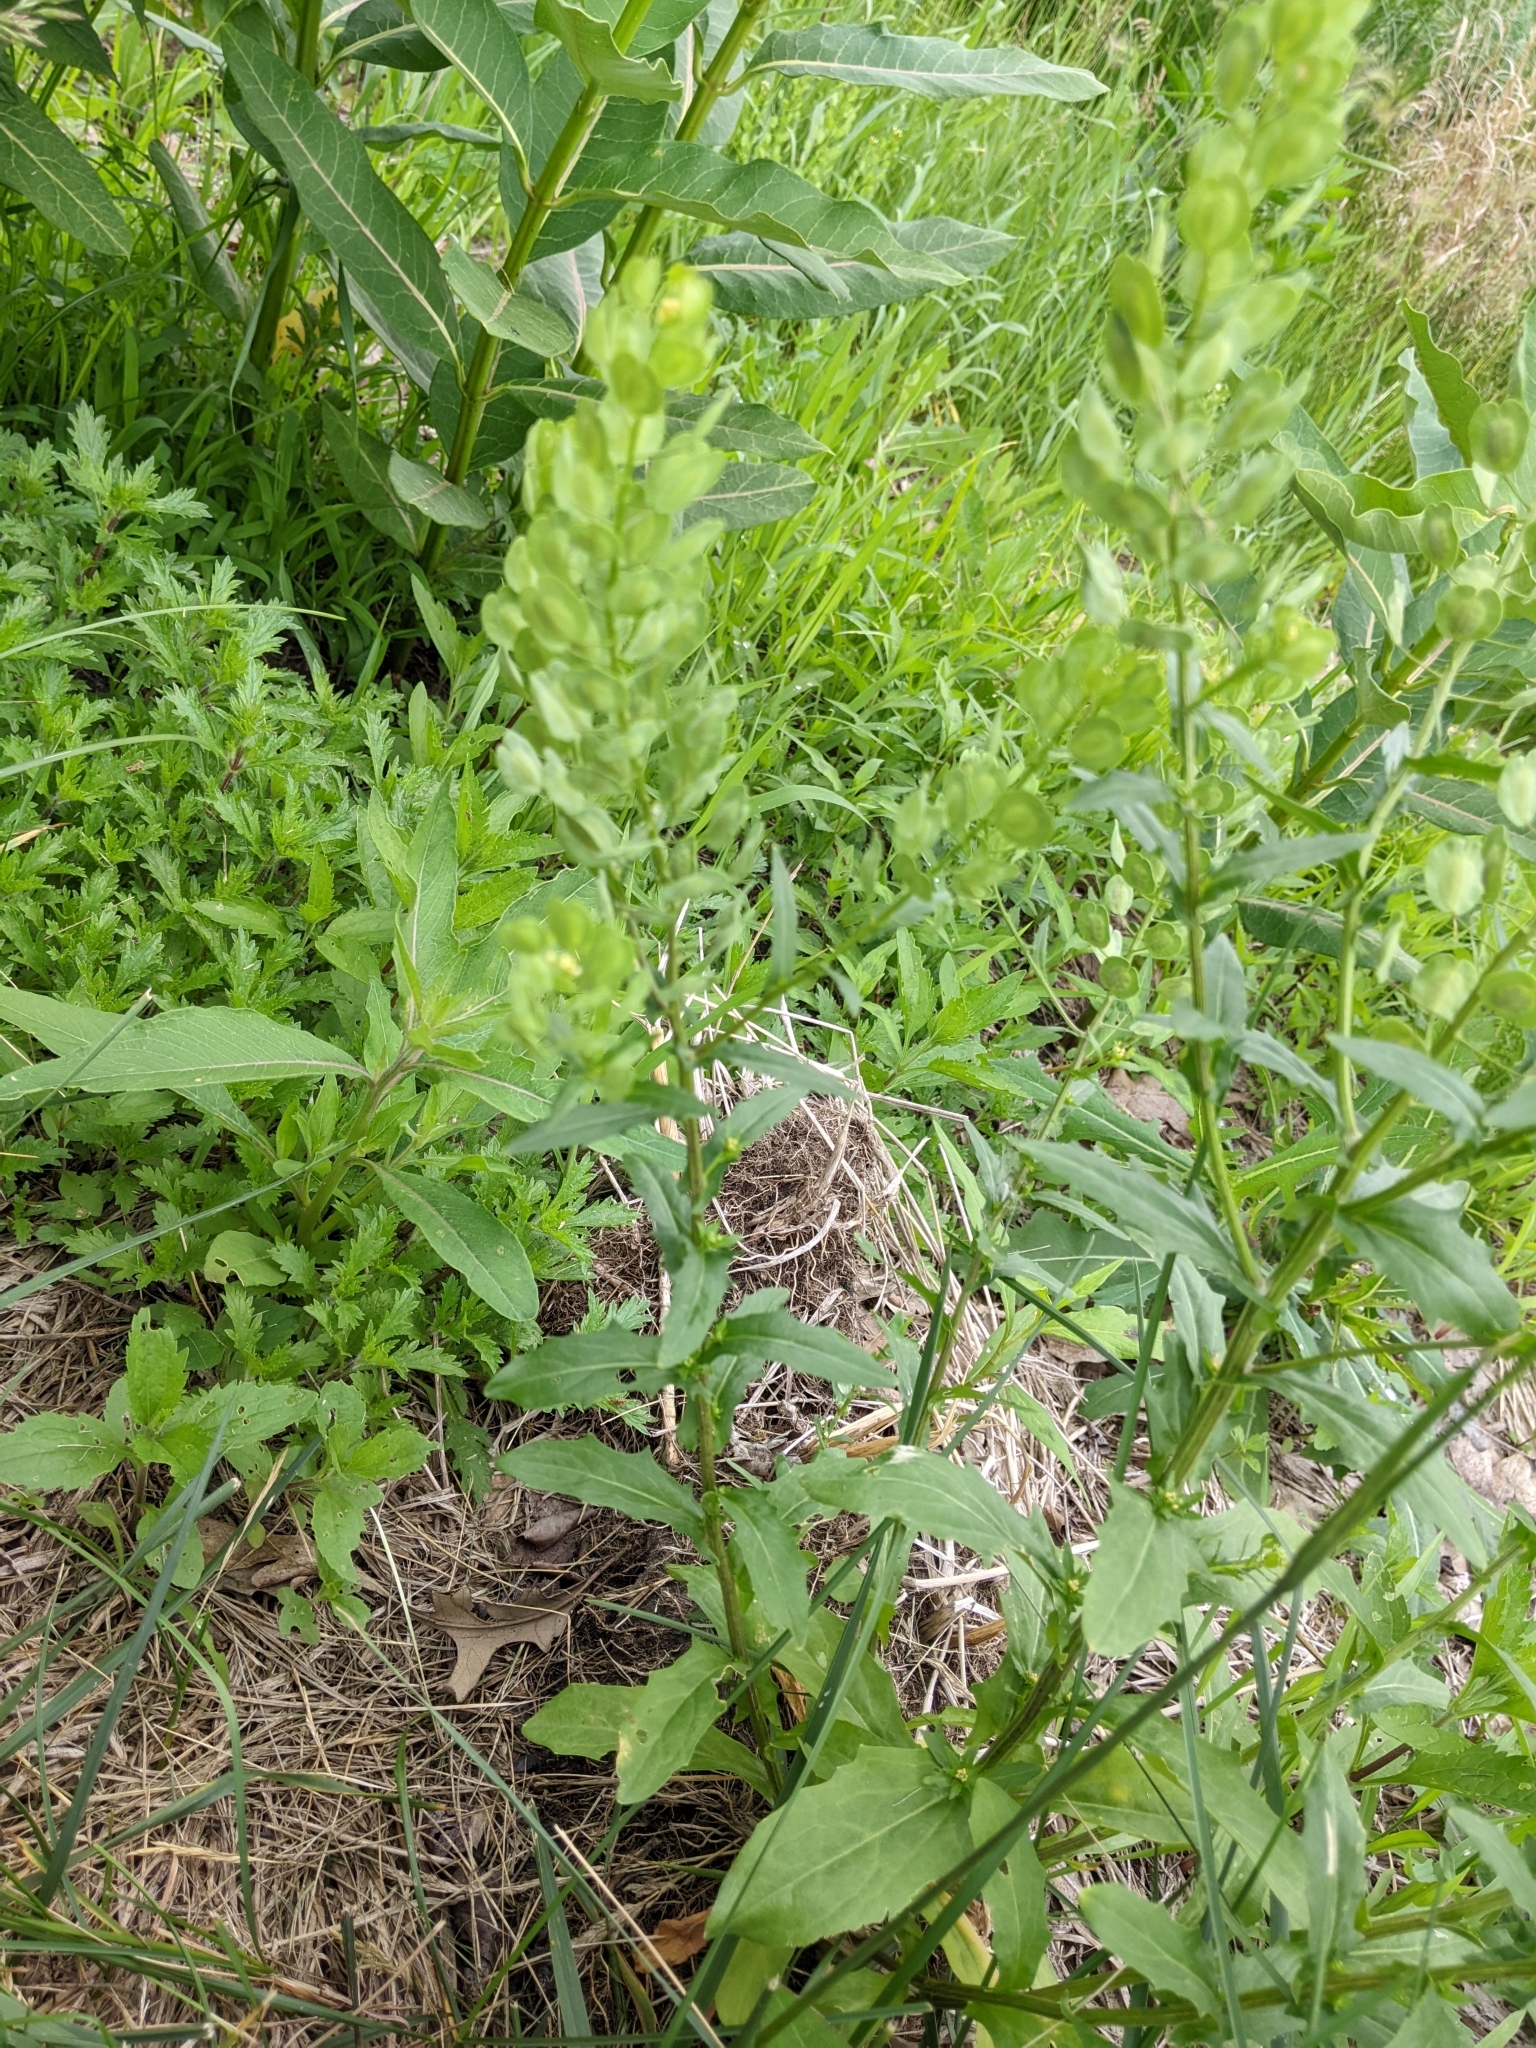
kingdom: Plantae
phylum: Tracheophyta
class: Magnoliopsida
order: Brassicales
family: Brassicaceae
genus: Thlaspi
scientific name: Thlaspi arvense
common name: Field pennycress
